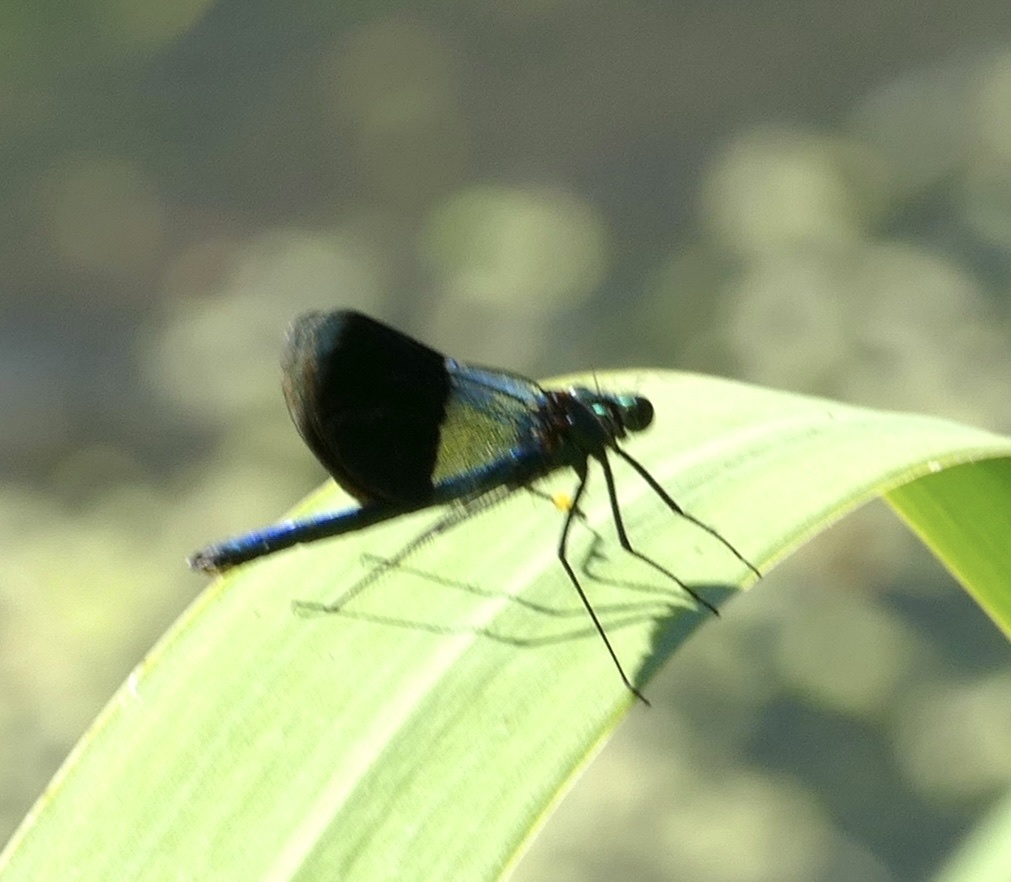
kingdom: Animalia
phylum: Arthropoda
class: Insecta
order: Odonata
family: Calopterygidae
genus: Calopteryx
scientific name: Calopteryx splendens
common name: Banded demoiselle
